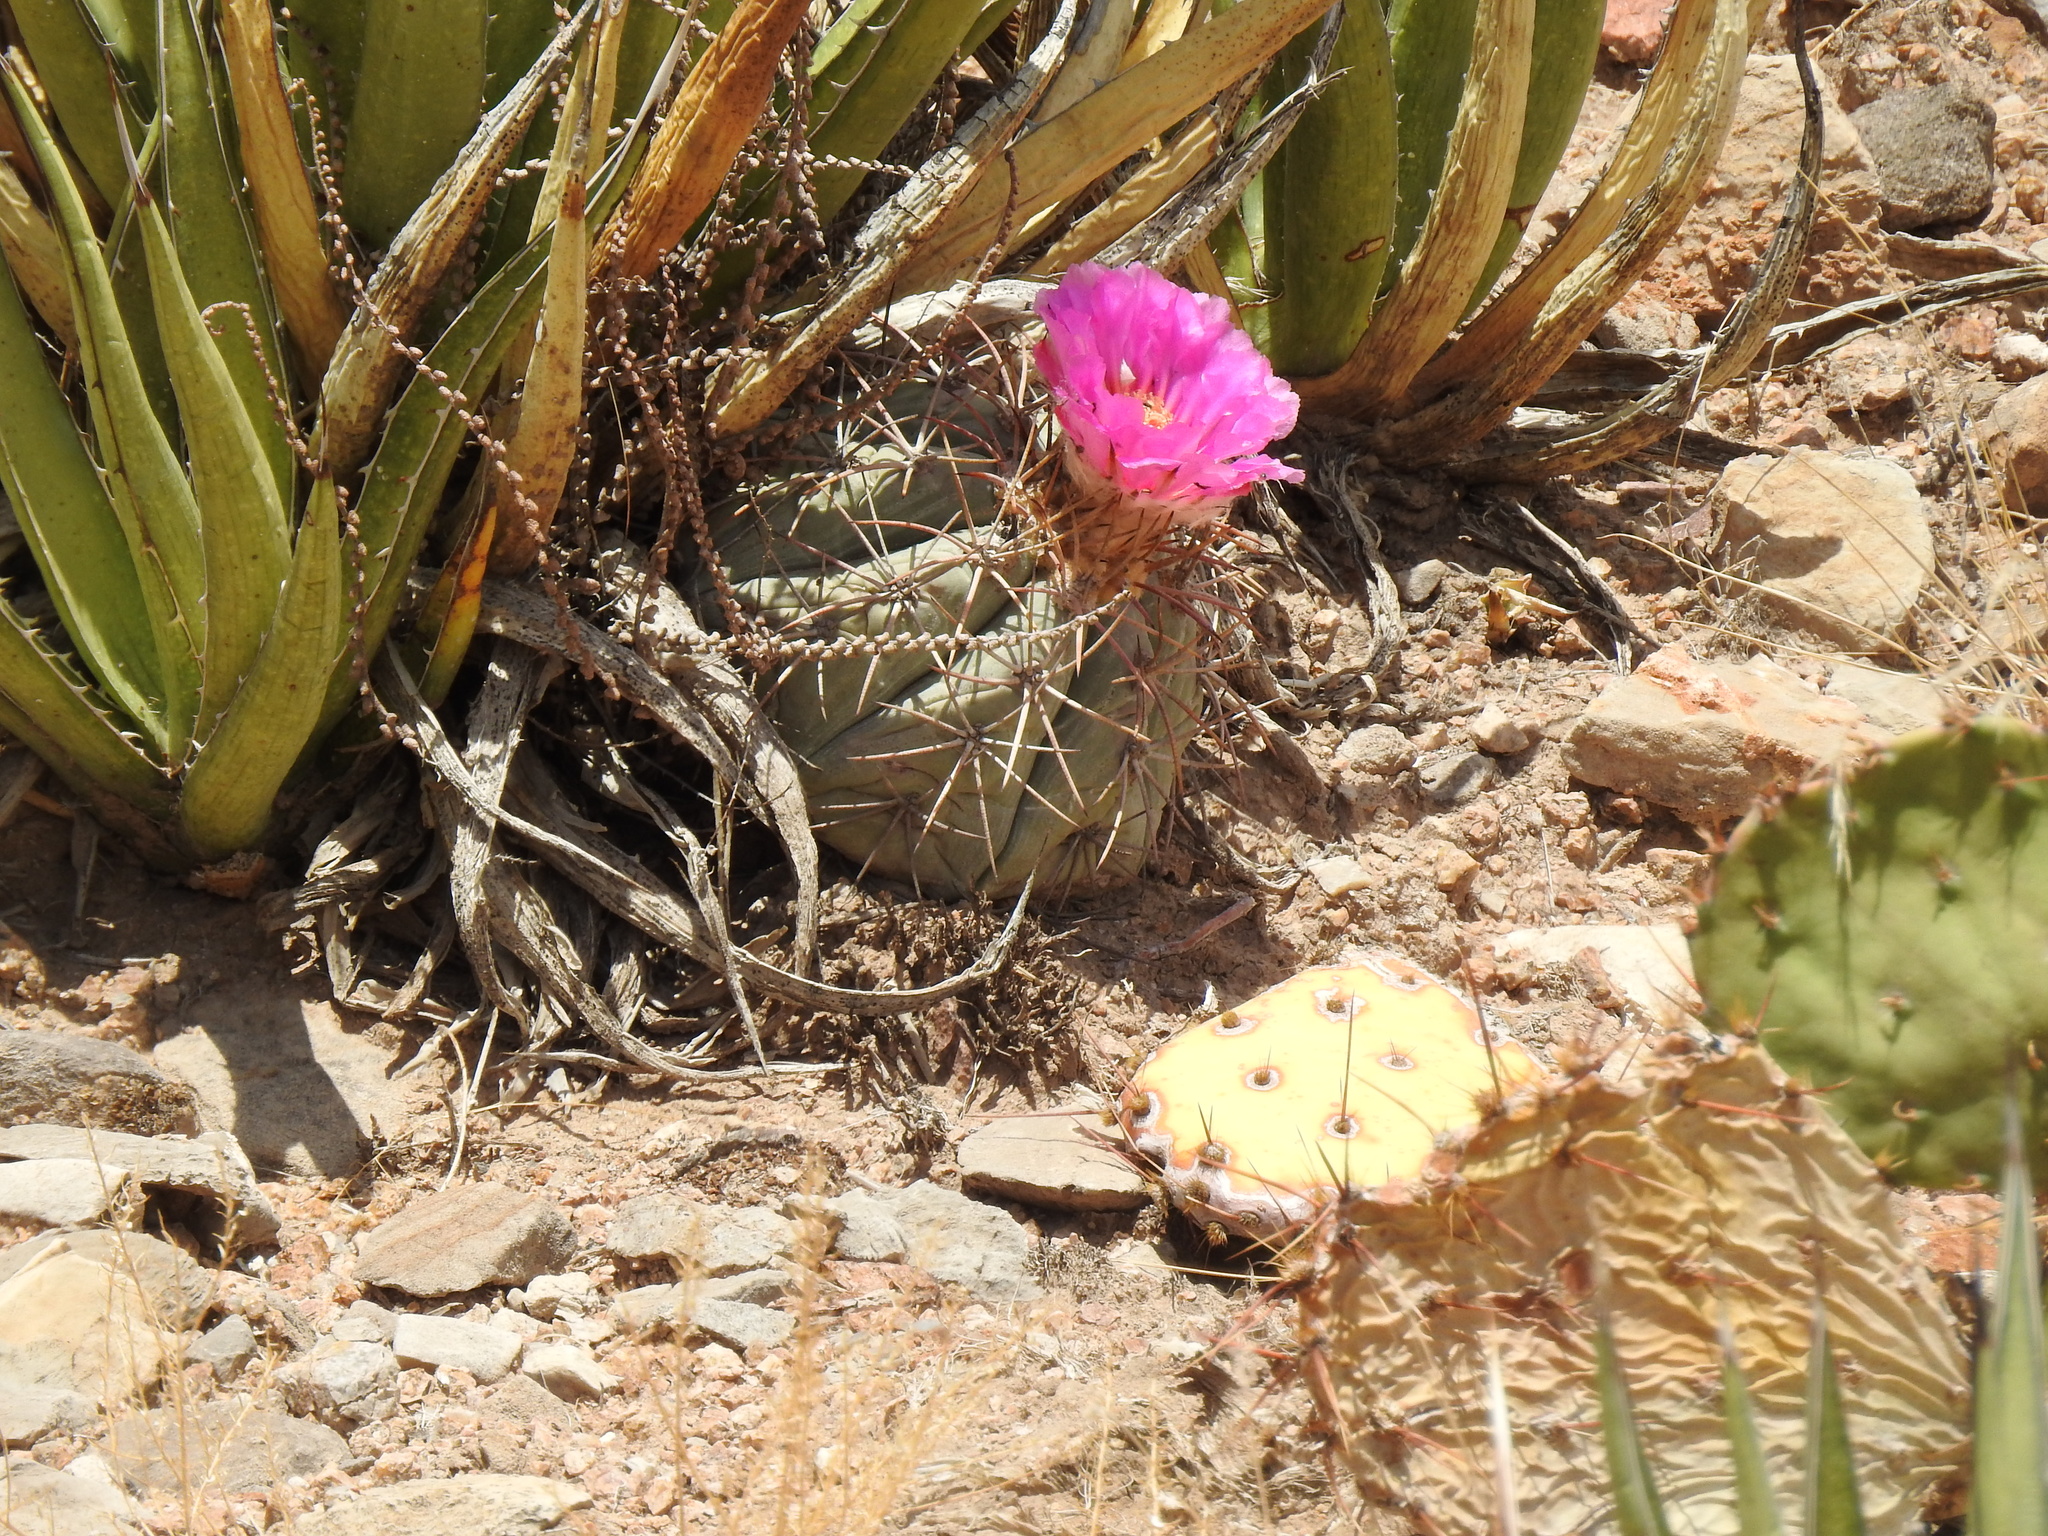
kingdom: Plantae
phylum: Tracheophyta
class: Magnoliopsida
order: Caryophyllales
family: Cactaceae
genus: Echinocactus
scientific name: Echinocactus horizonthalonius
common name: Devilshead
